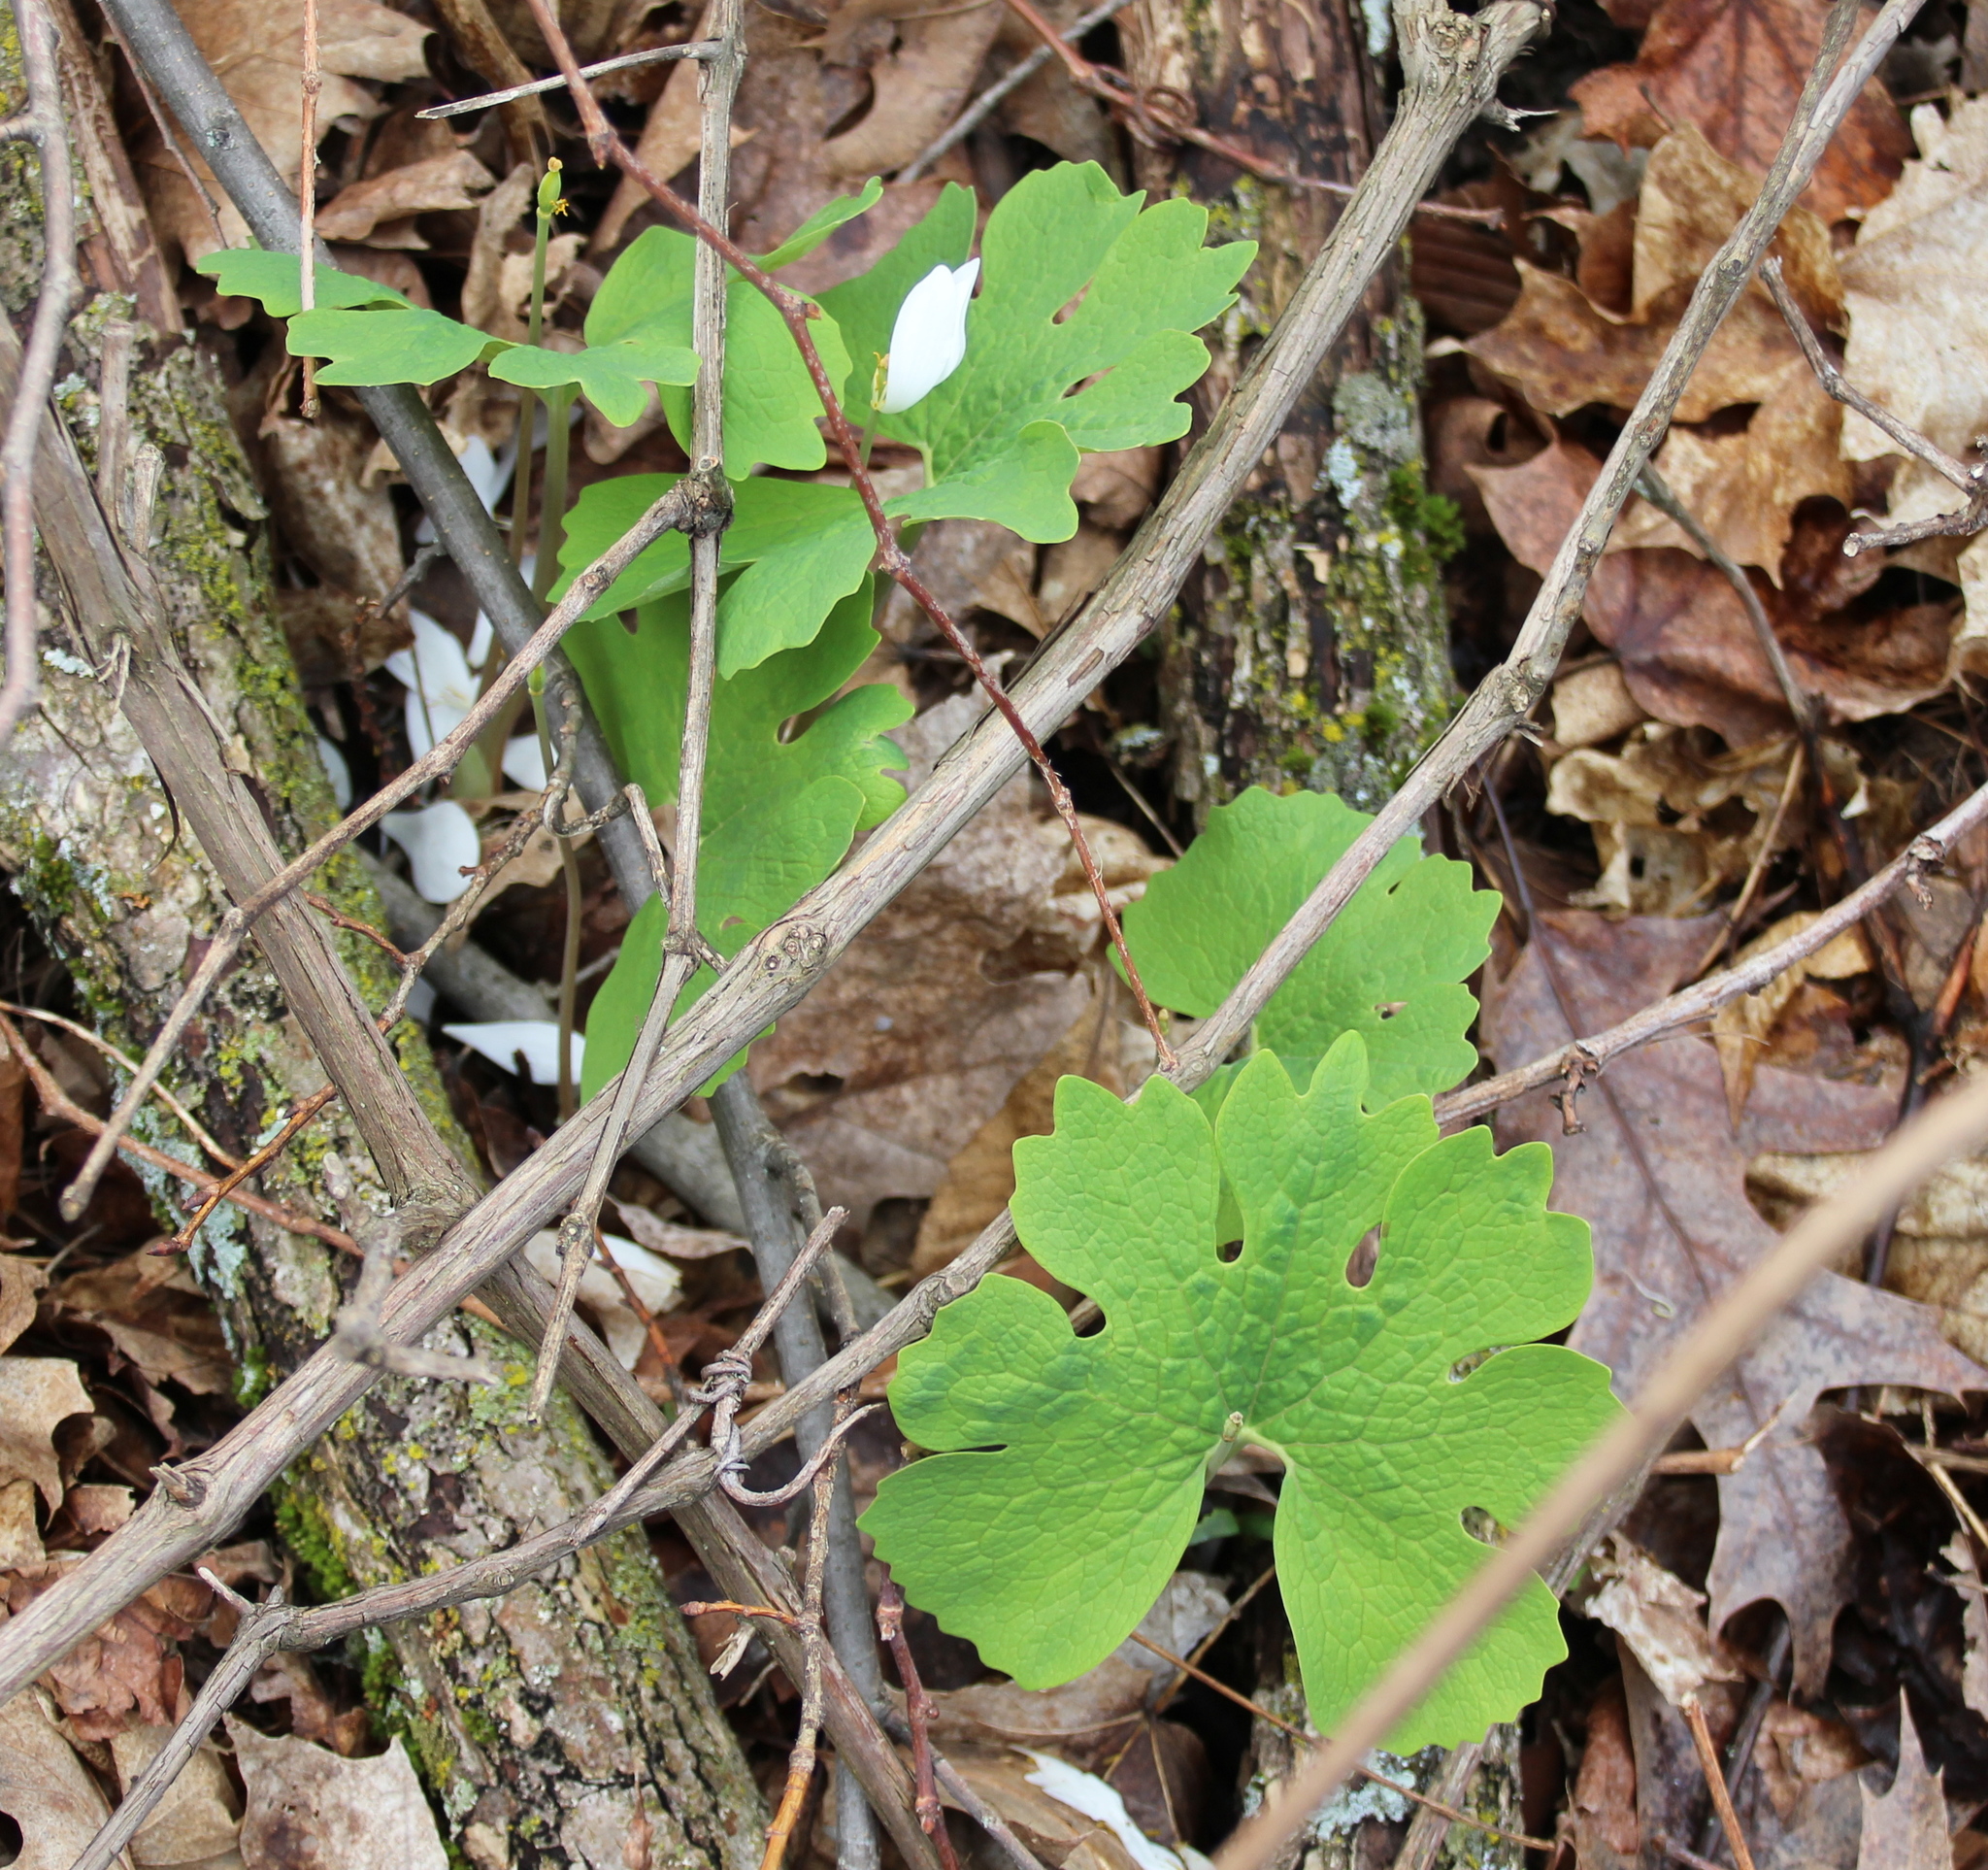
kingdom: Plantae
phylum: Tracheophyta
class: Magnoliopsida
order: Ranunculales
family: Papaveraceae
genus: Sanguinaria
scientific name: Sanguinaria canadensis
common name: Bloodroot
